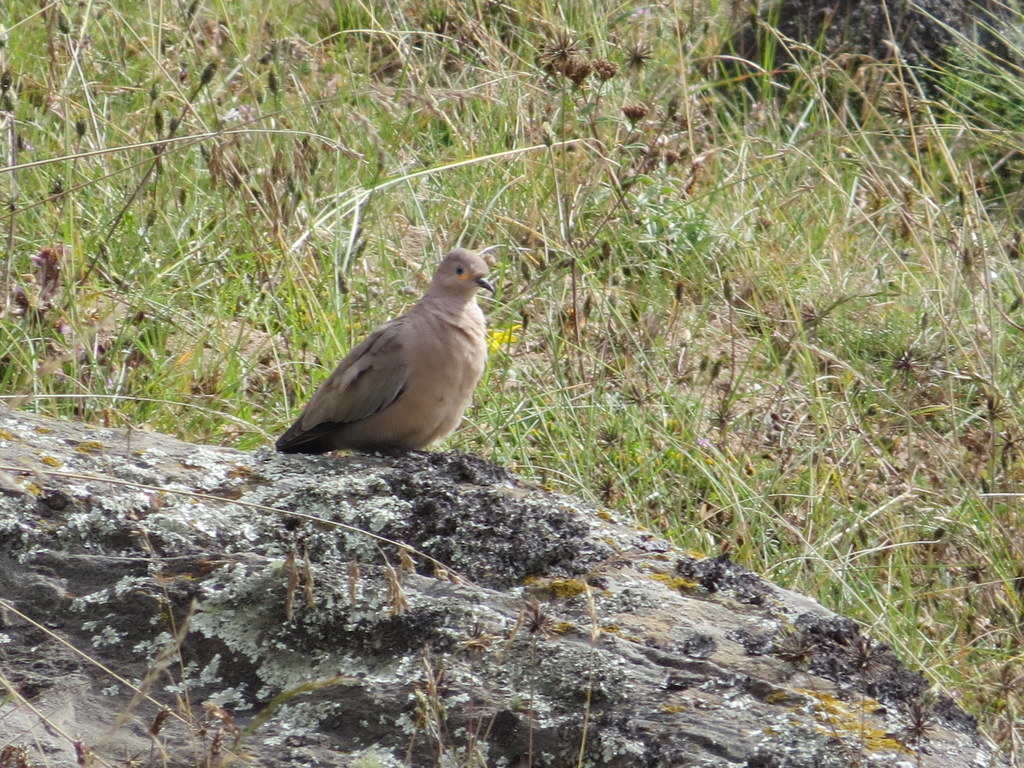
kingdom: Animalia
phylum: Chordata
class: Aves
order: Columbiformes
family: Columbidae
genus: Metriopelia
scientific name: Metriopelia melanoptera
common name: Black-winged ground dove
